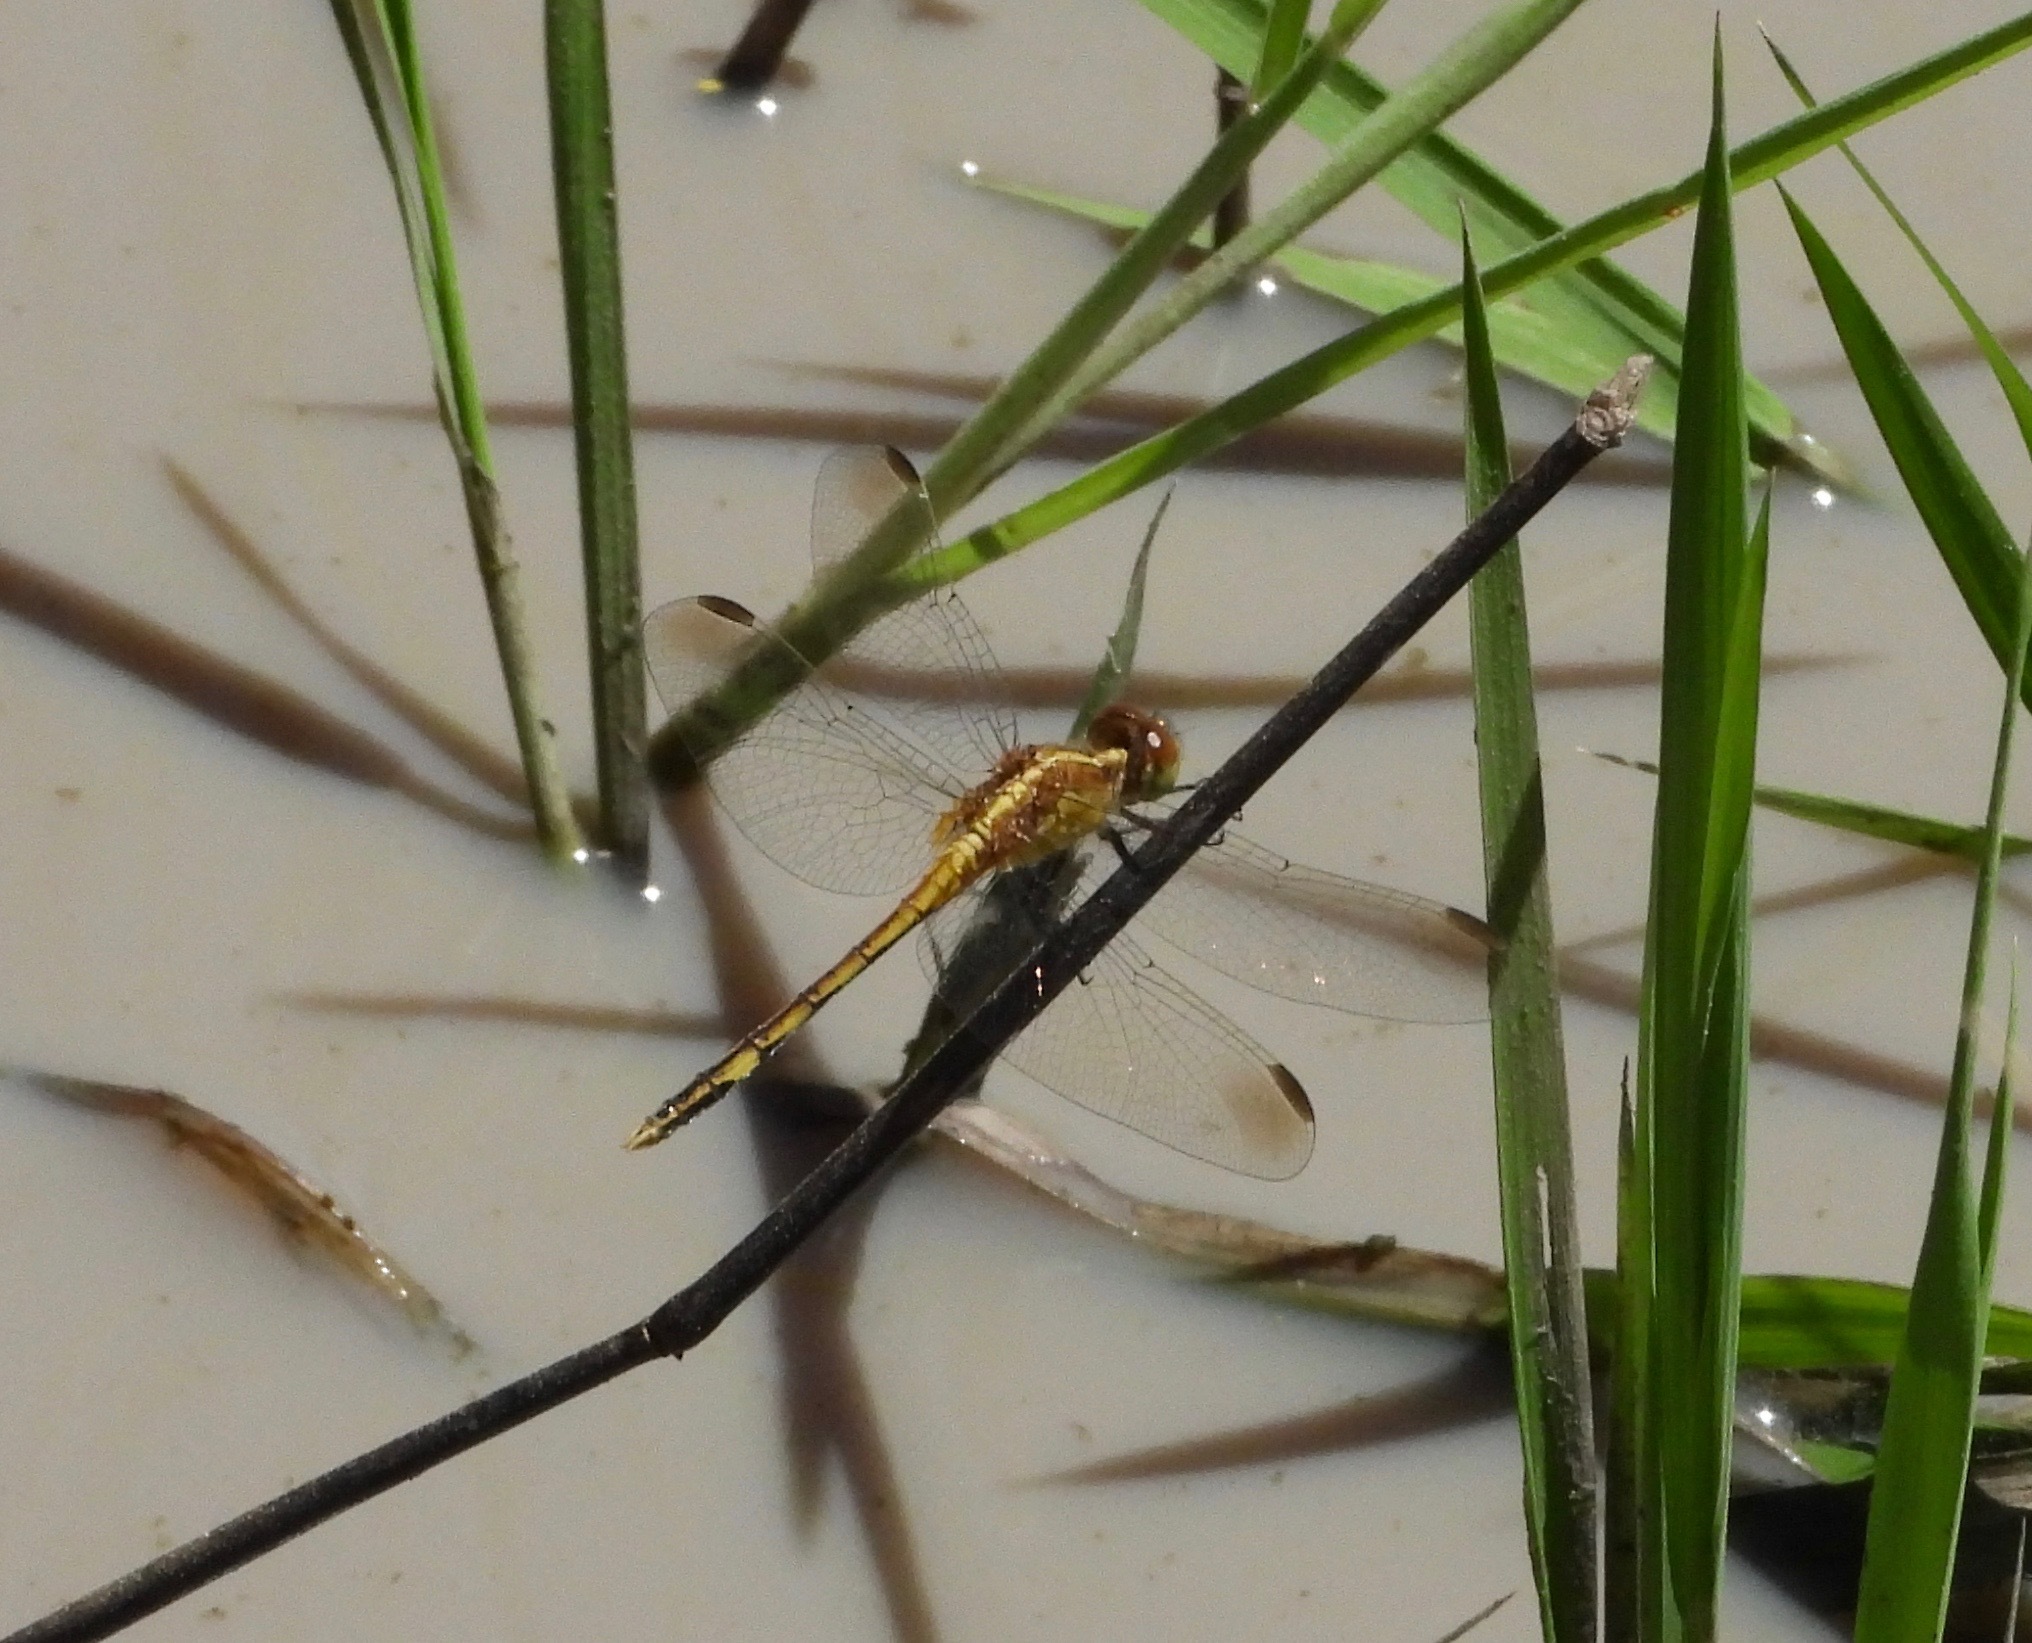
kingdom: Animalia
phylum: Arthropoda
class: Insecta
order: Odonata
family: Libellulidae
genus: Erythrodiplax
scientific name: Erythrodiplax nigricans
